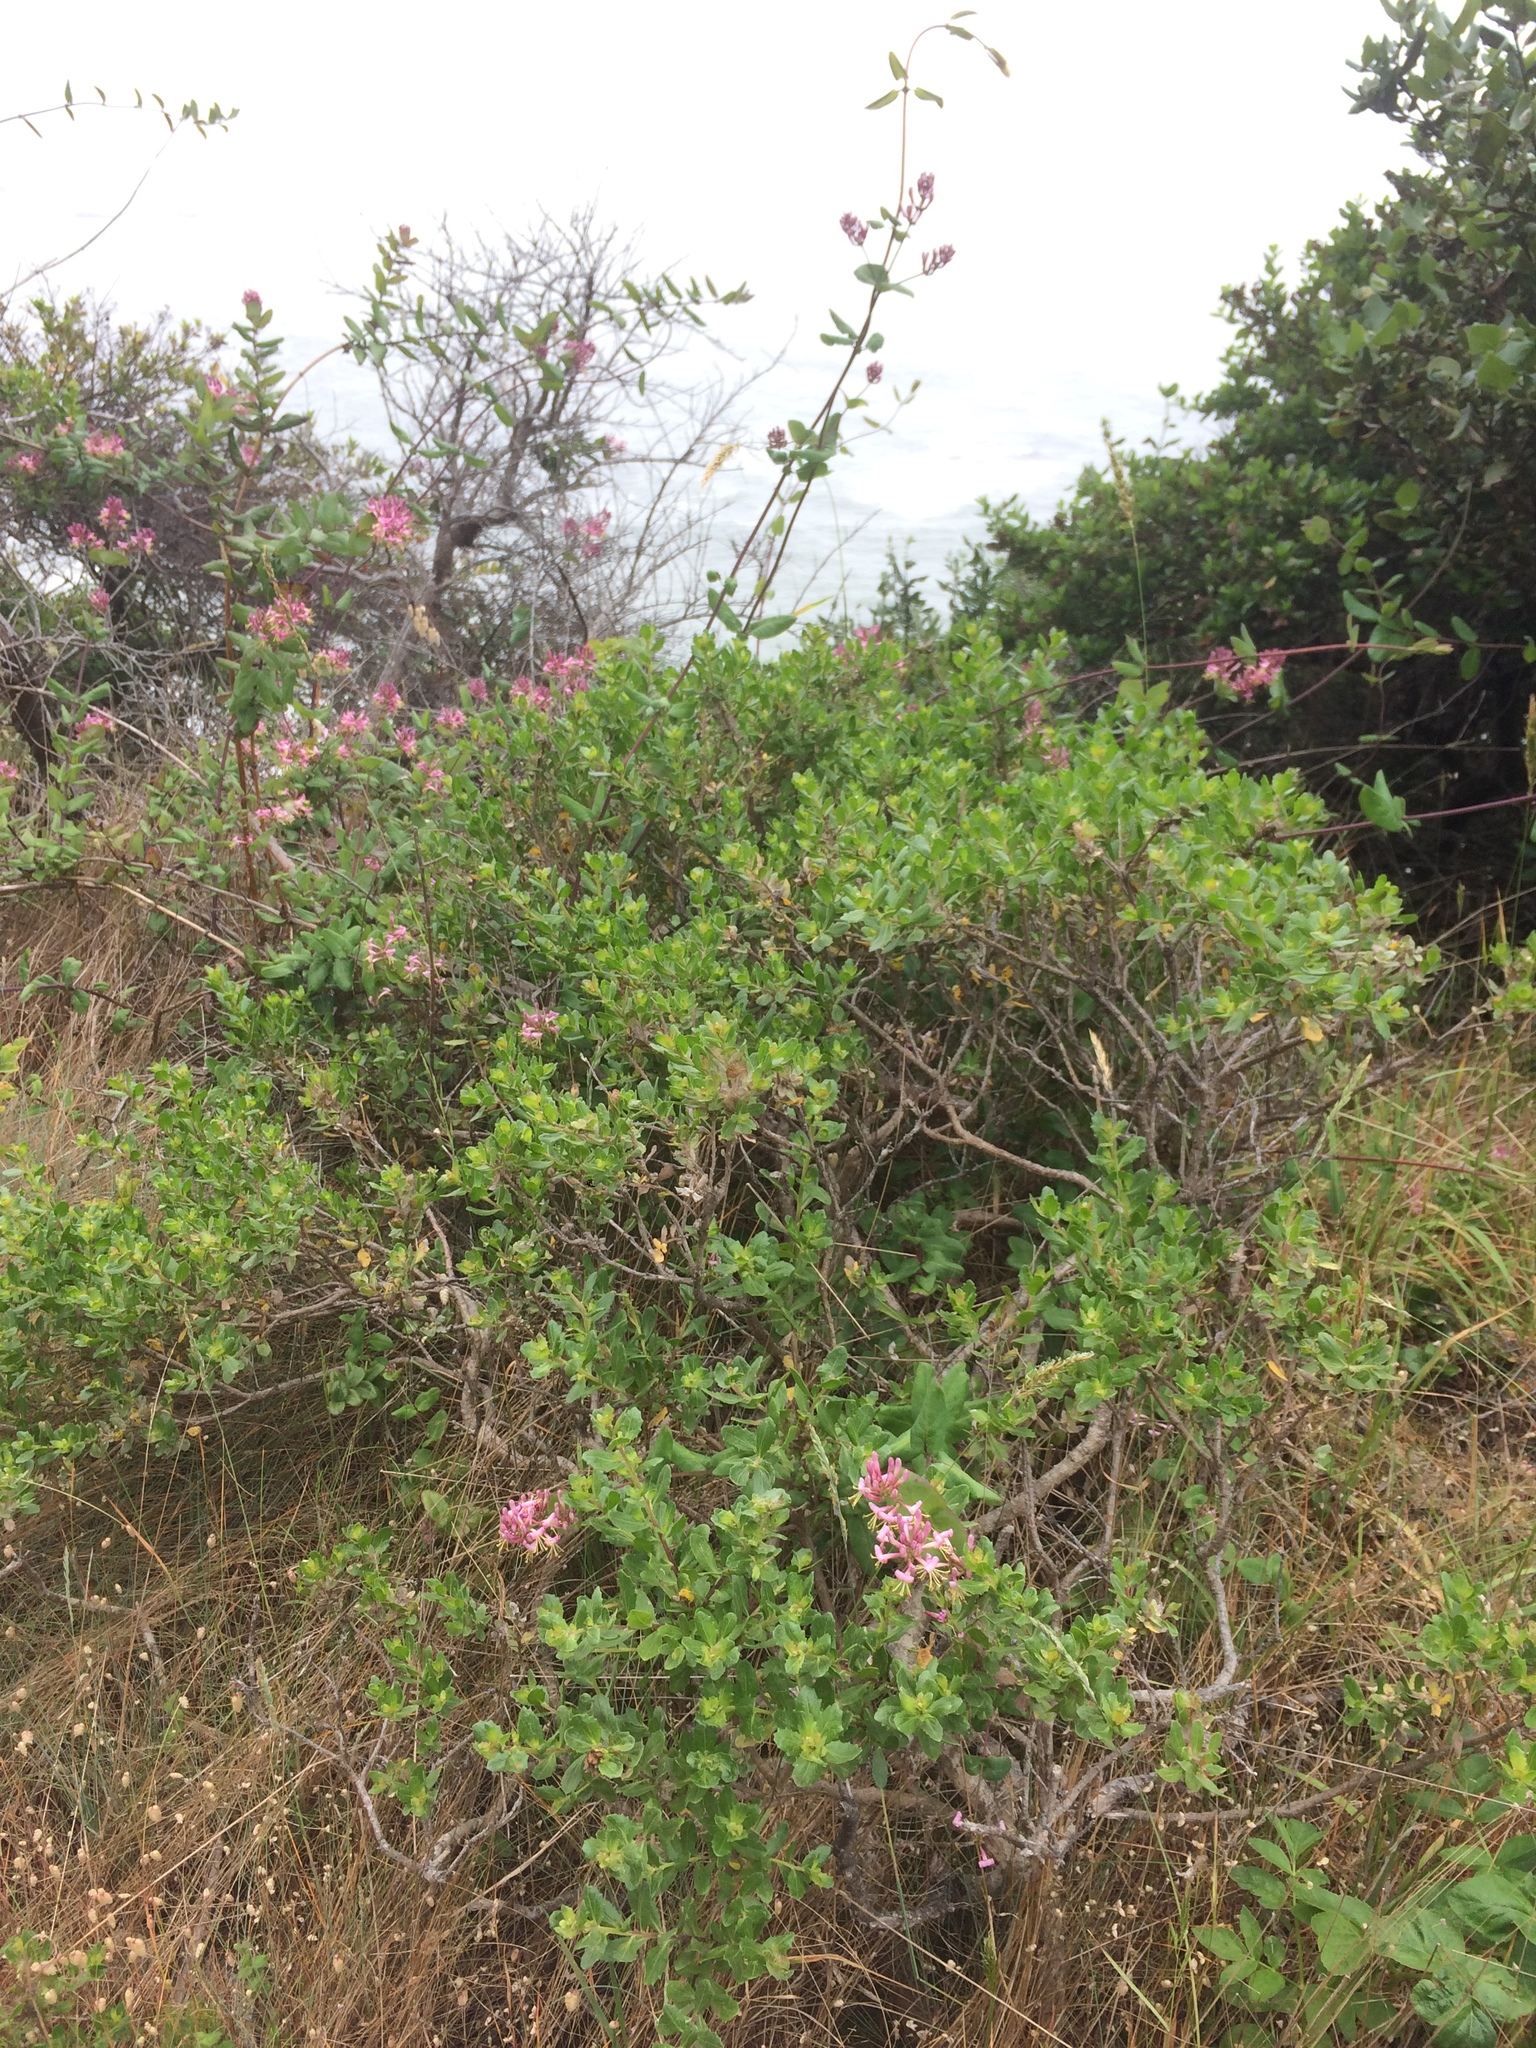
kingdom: Plantae
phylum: Tracheophyta
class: Magnoliopsida
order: Dipsacales
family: Caprifoliaceae
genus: Lonicera
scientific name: Lonicera hispidula
